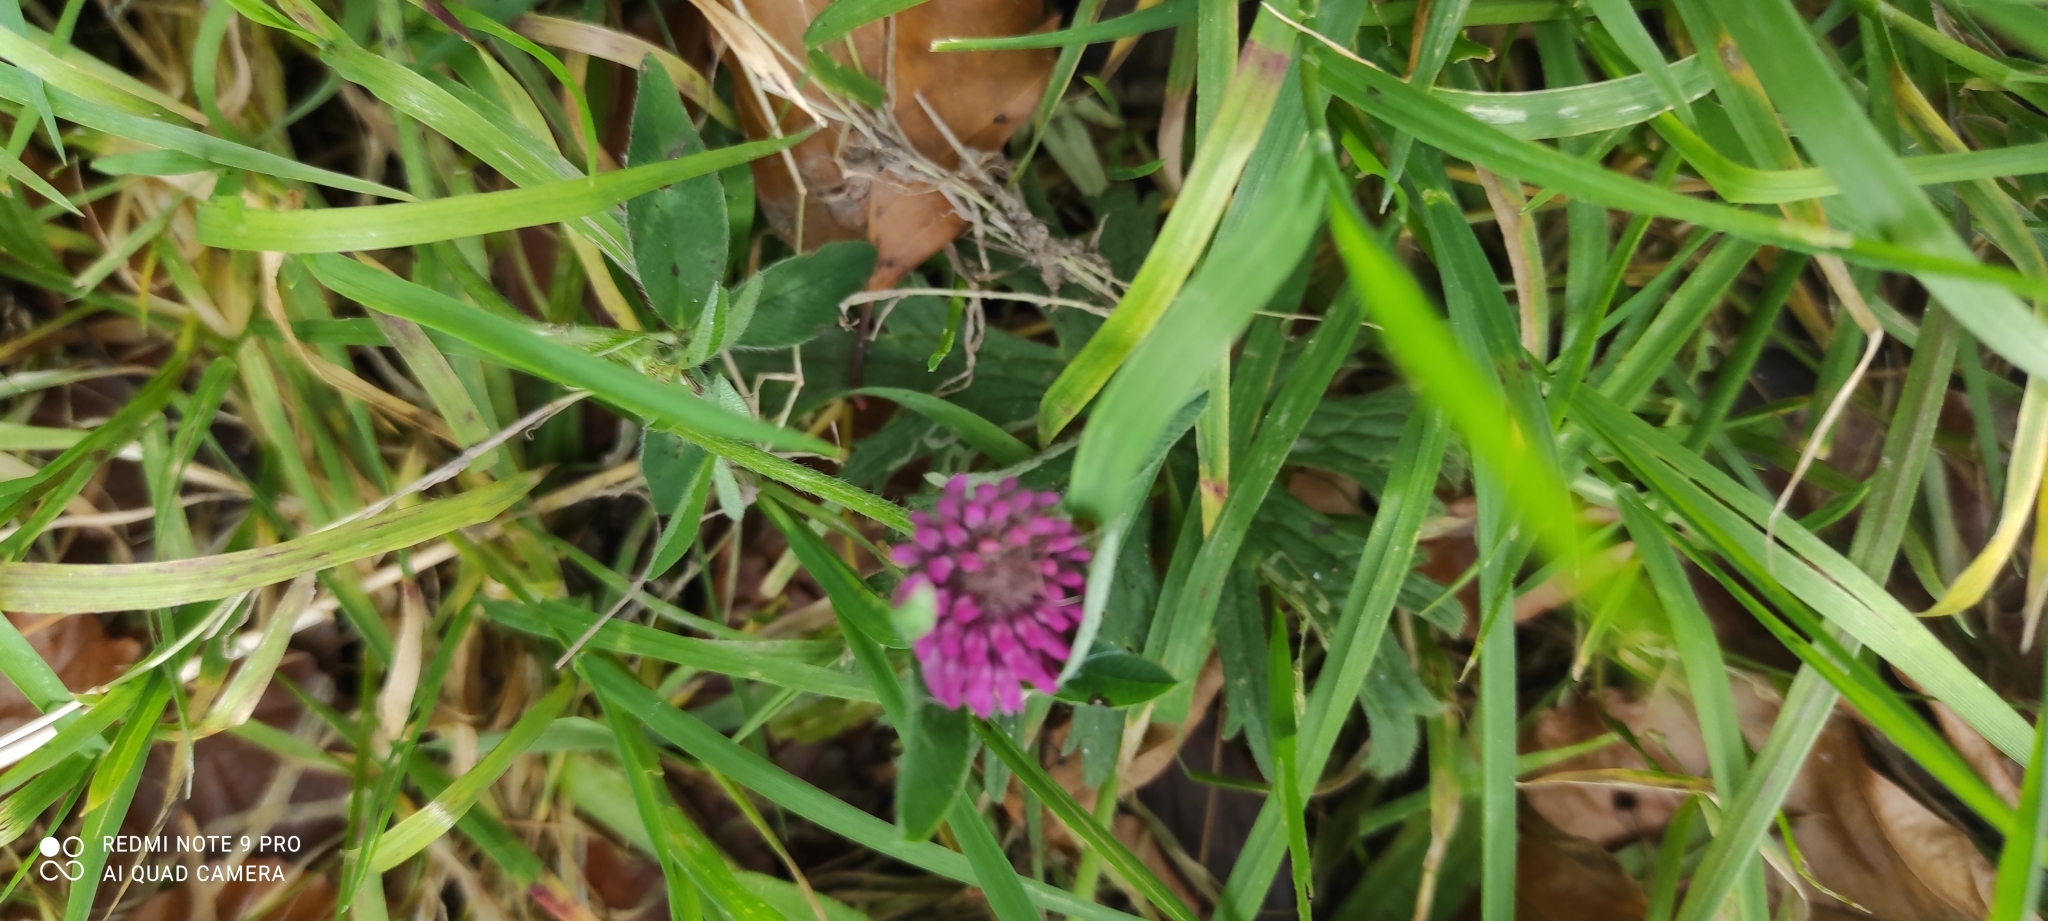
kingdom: Plantae
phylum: Tracheophyta
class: Magnoliopsida
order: Fabales
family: Fabaceae
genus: Trifolium
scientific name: Trifolium pratense
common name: Red clover
